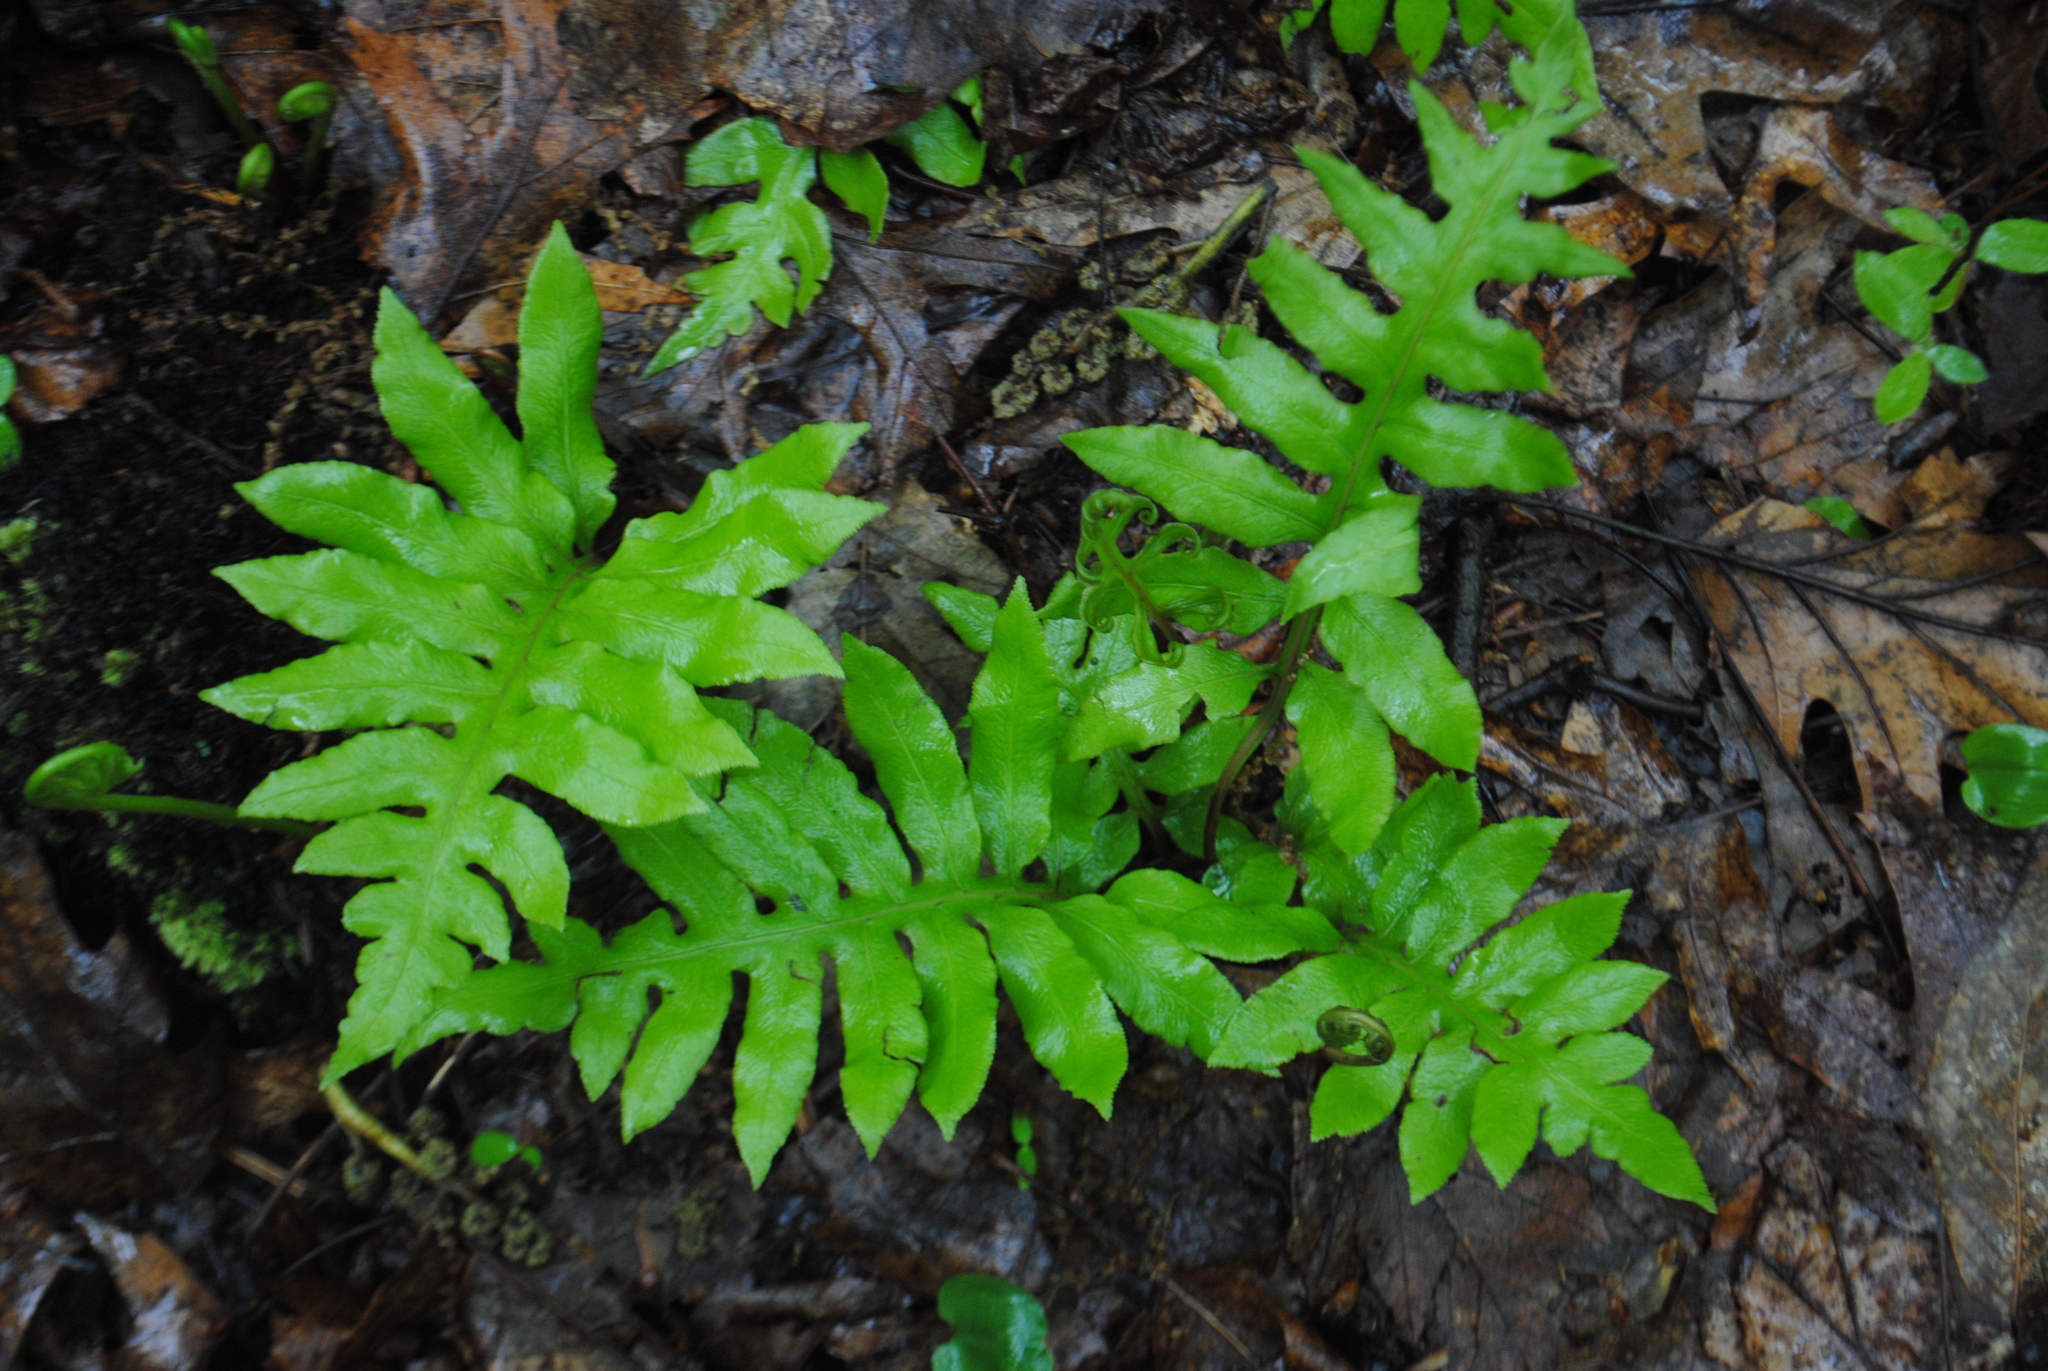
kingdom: Plantae
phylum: Tracheophyta
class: Polypodiopsida
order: Polypodiales
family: Blechnaceae
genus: Lorinseria
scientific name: Lorinseria areolata
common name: Dwarf chain fern
